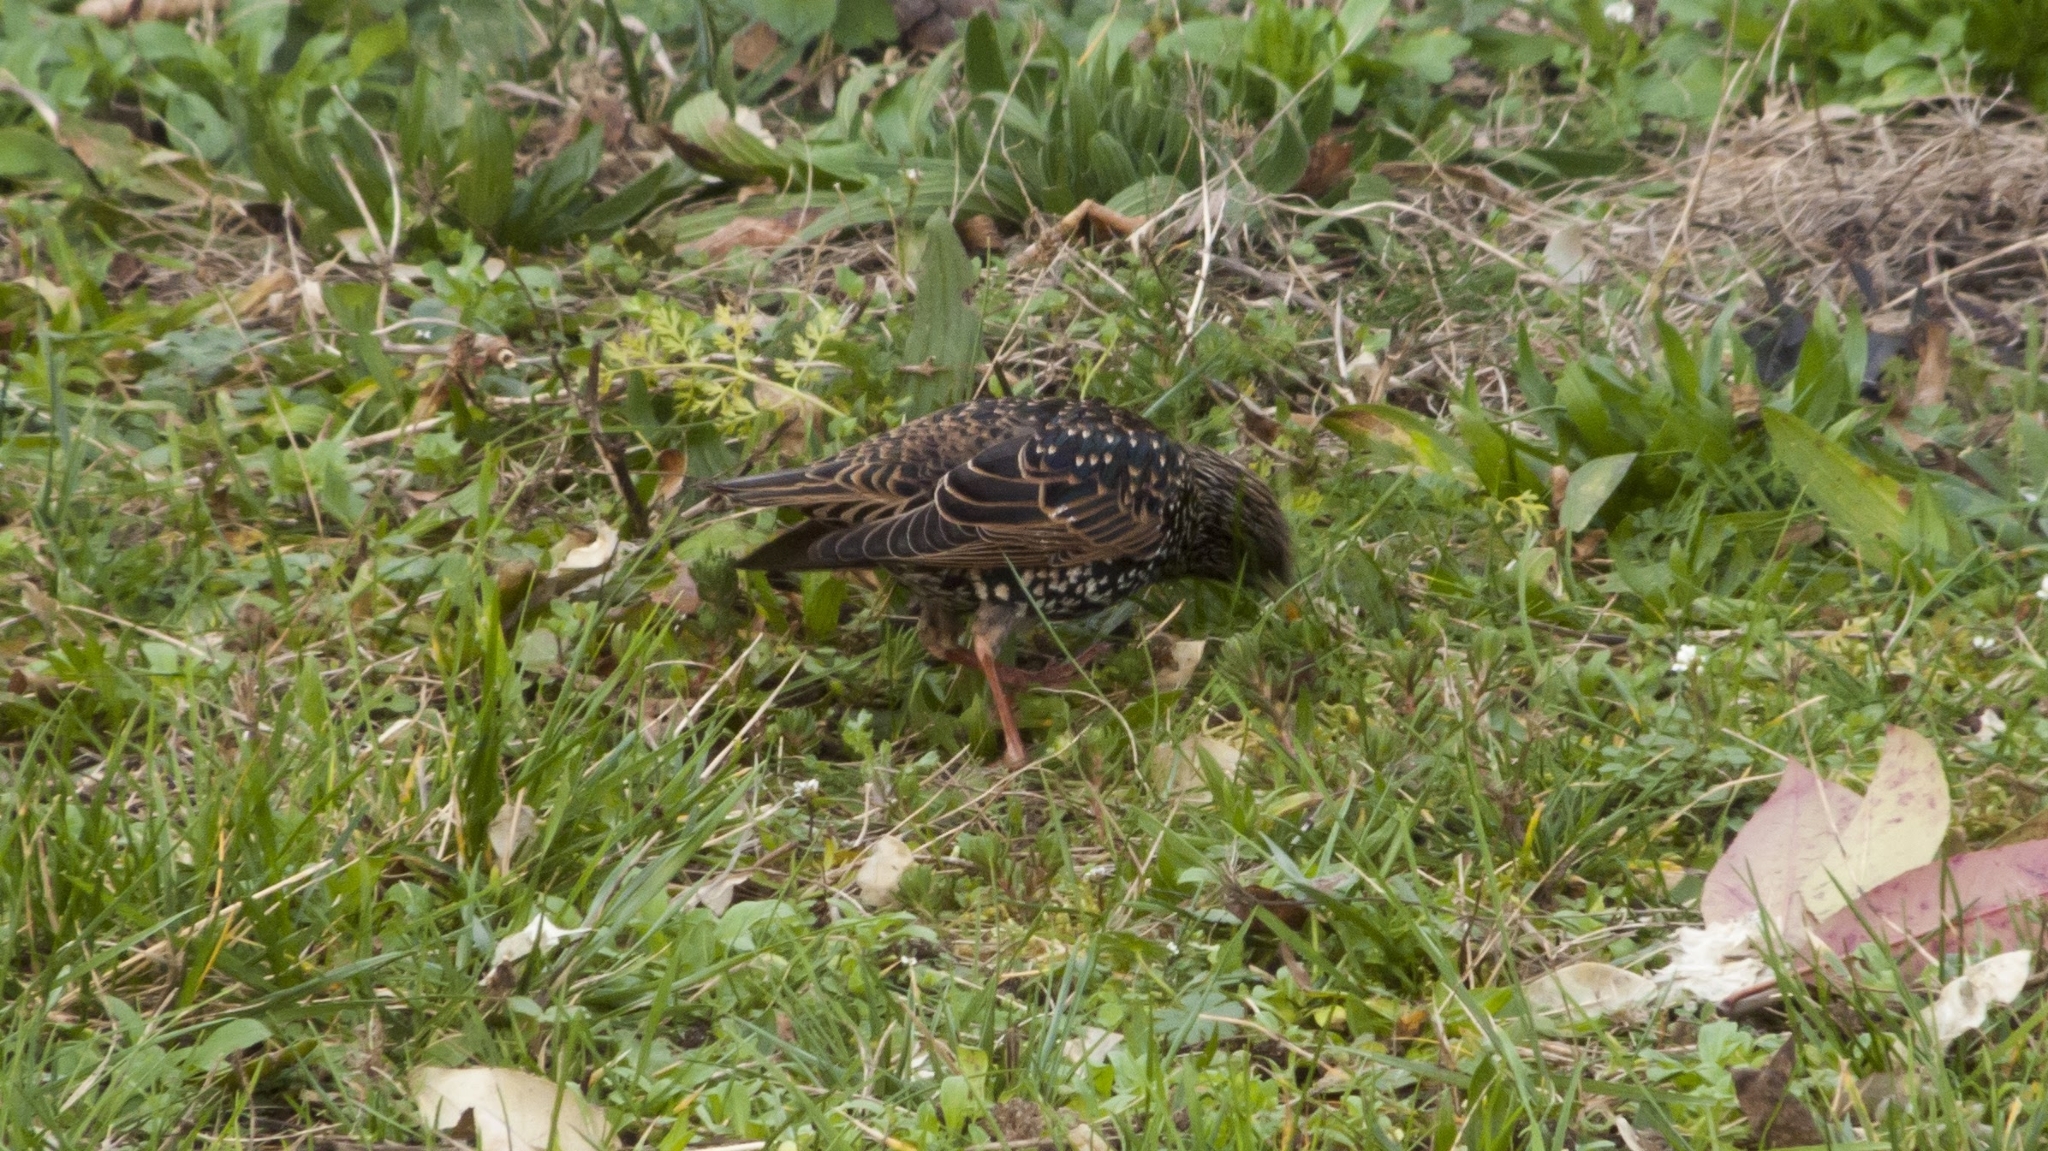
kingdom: Animalia
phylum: Chordata
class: Aves
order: Passeriformes
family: Sturnidae
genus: Sturnus
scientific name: Sturnus vulgaris
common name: Common starling
